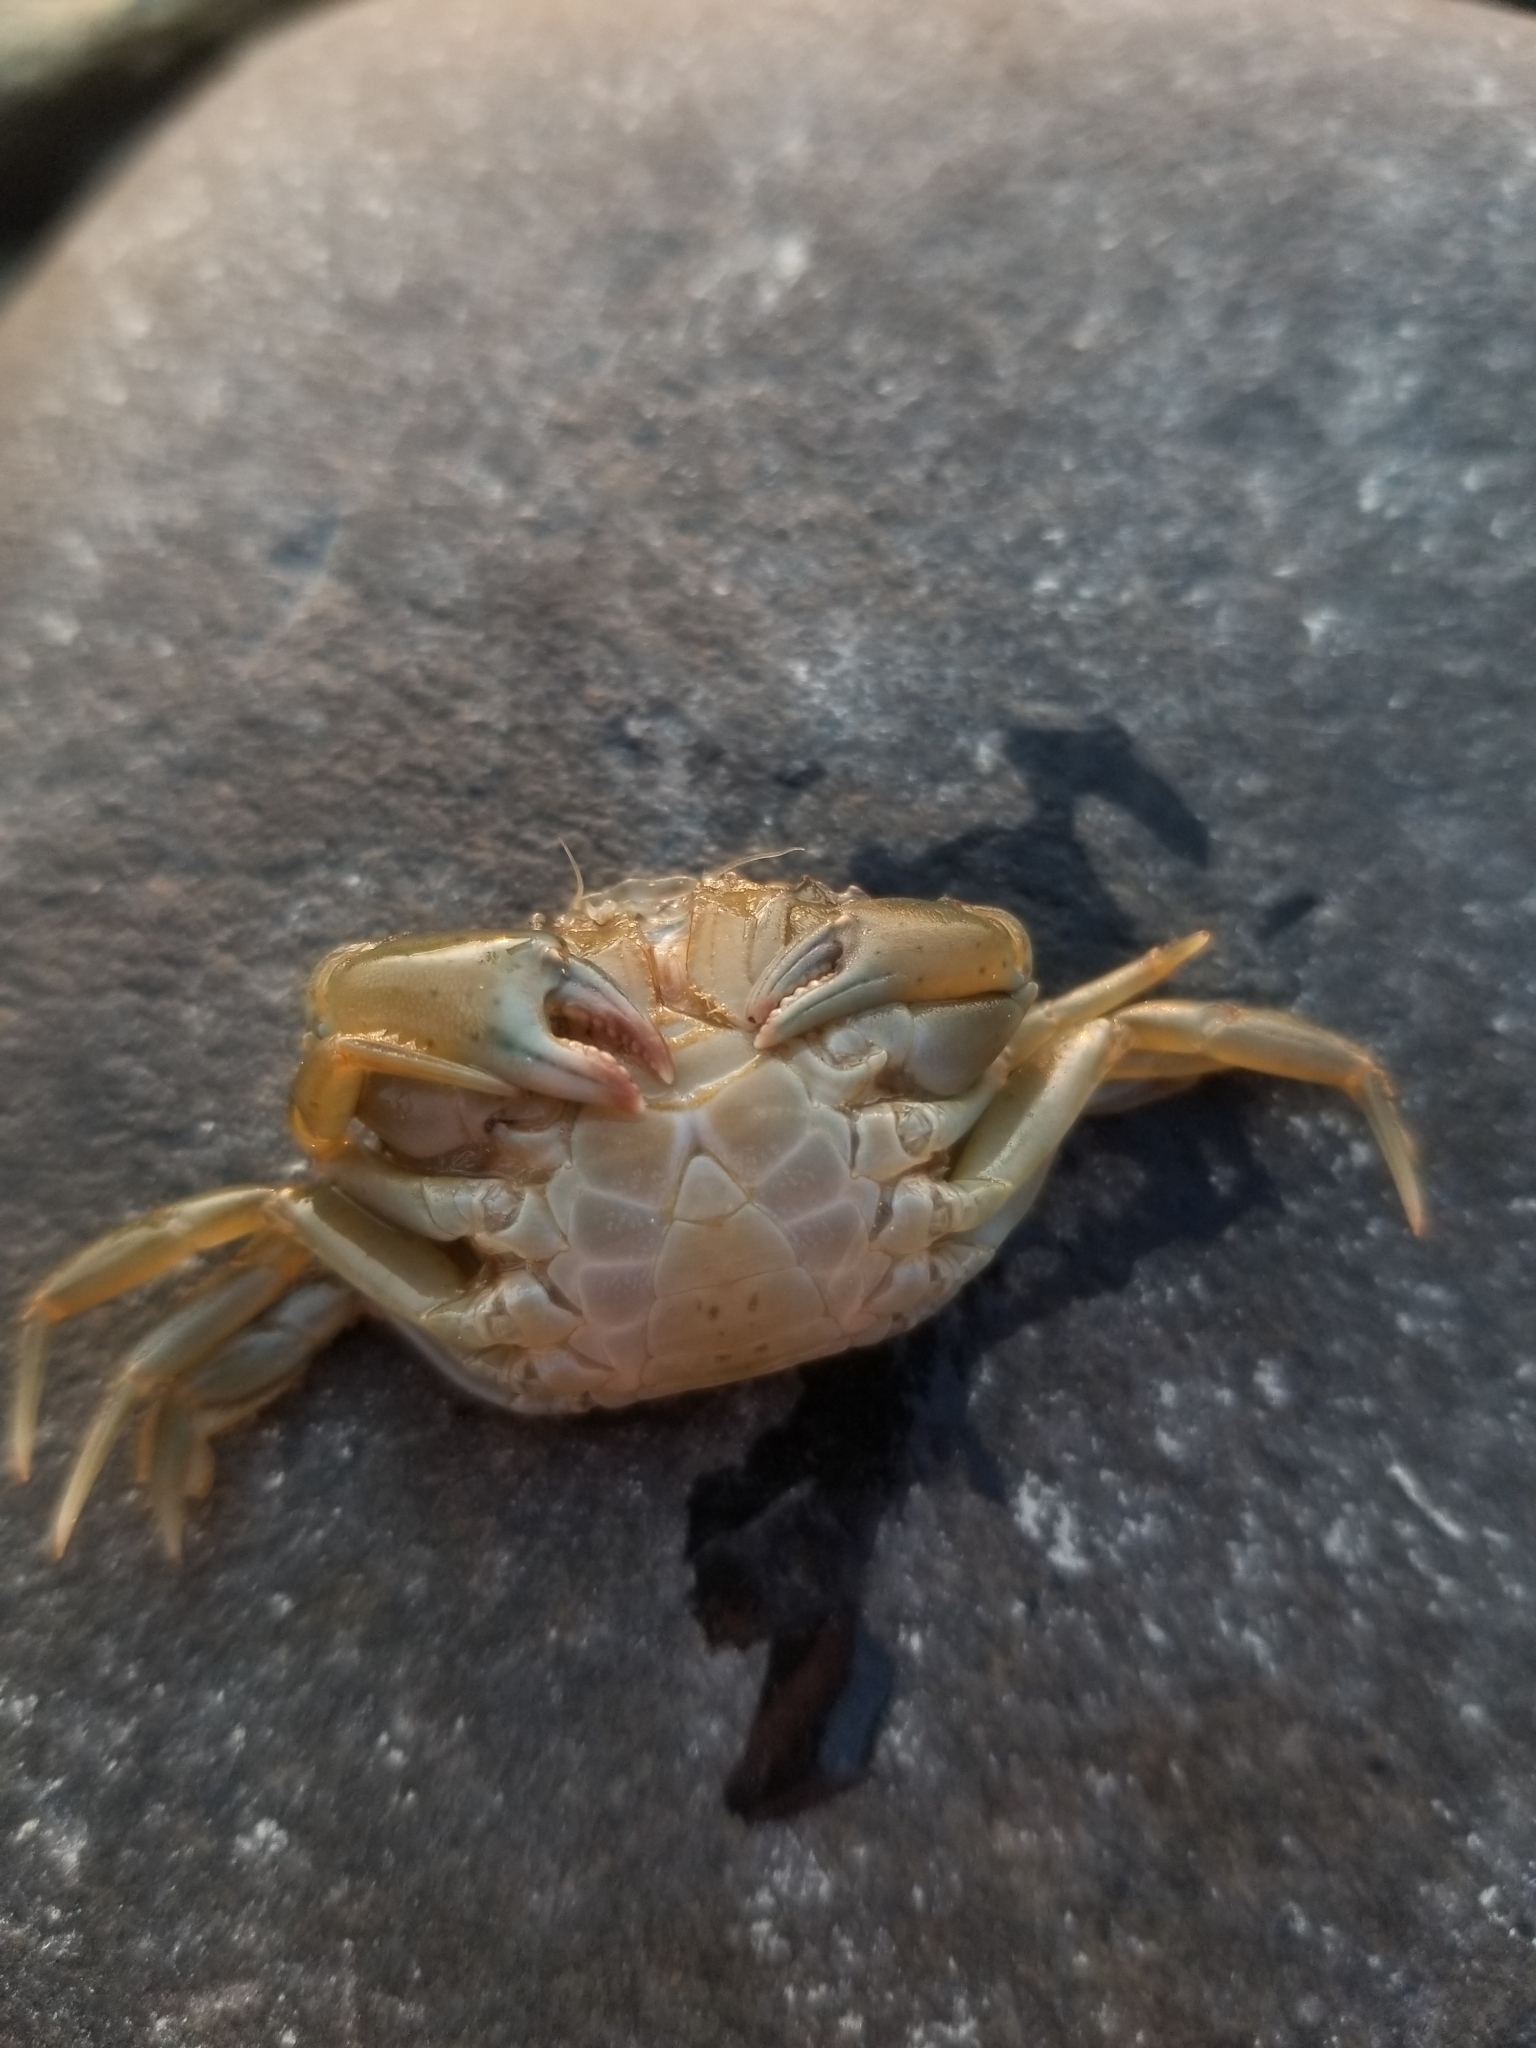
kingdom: Animalia
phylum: Arthropoda
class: Malacostraca
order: Decapoda
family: Carcinidae
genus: Carcinus
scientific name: Carcinus maenas
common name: European green crab
